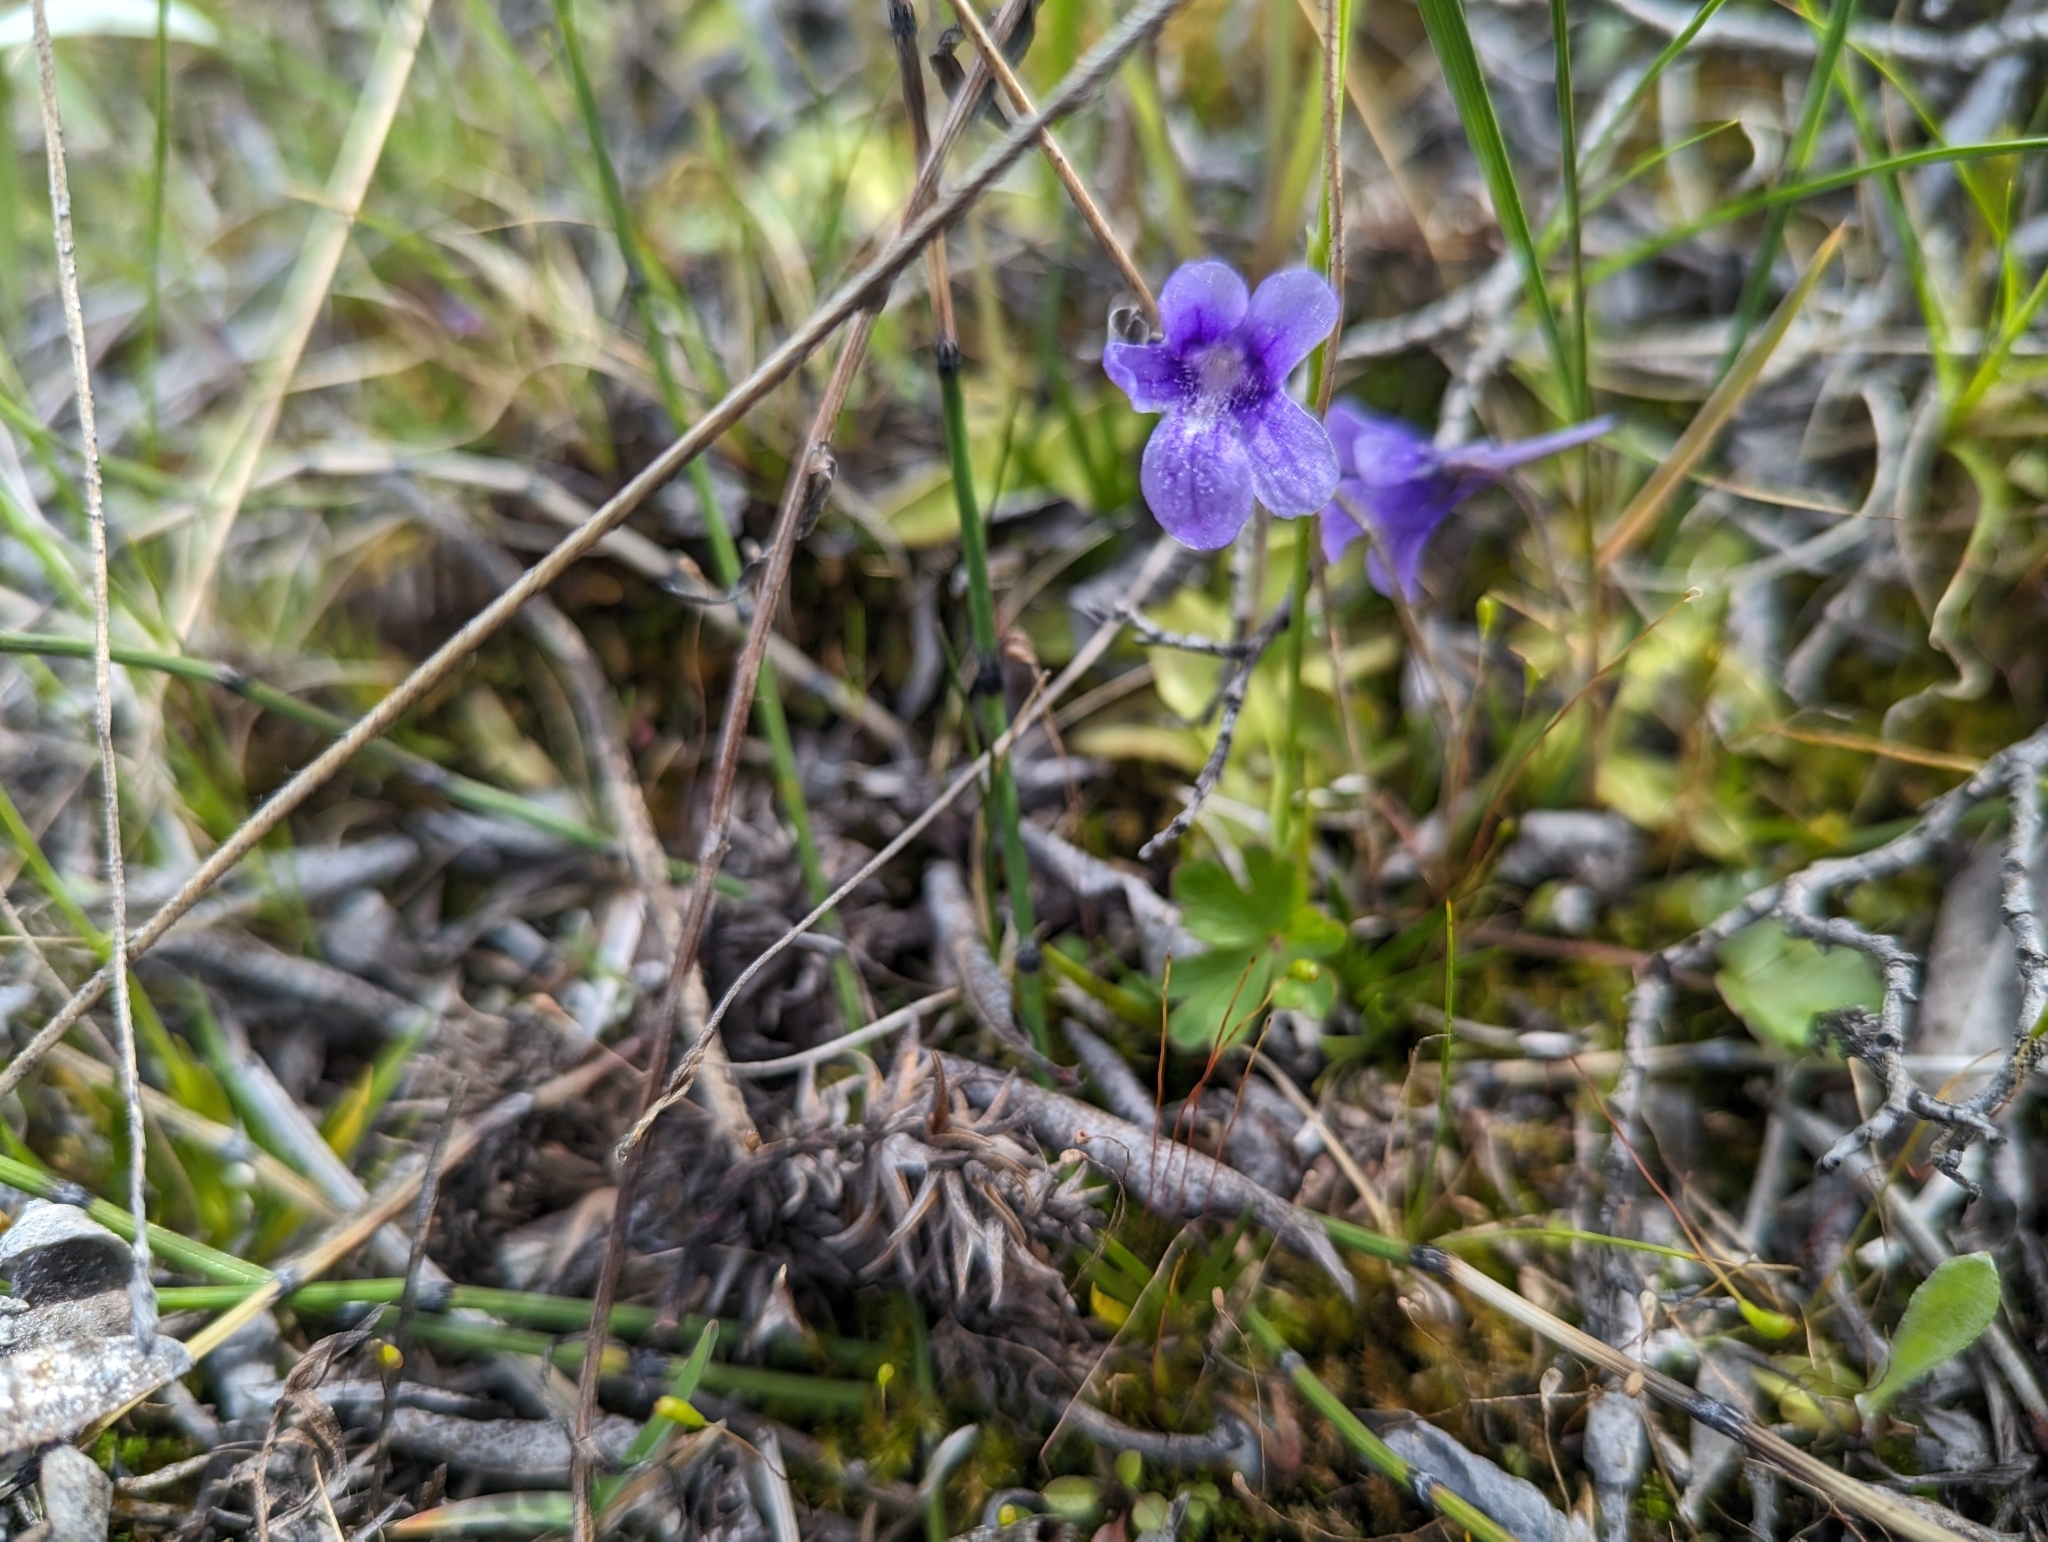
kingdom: Plantae
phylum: Tracheophyta
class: Magnoliopsida
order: Lamiales
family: Lentibulariaceae
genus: Pinguicula
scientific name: Pinguicula vulgaris
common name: Common butterwort
